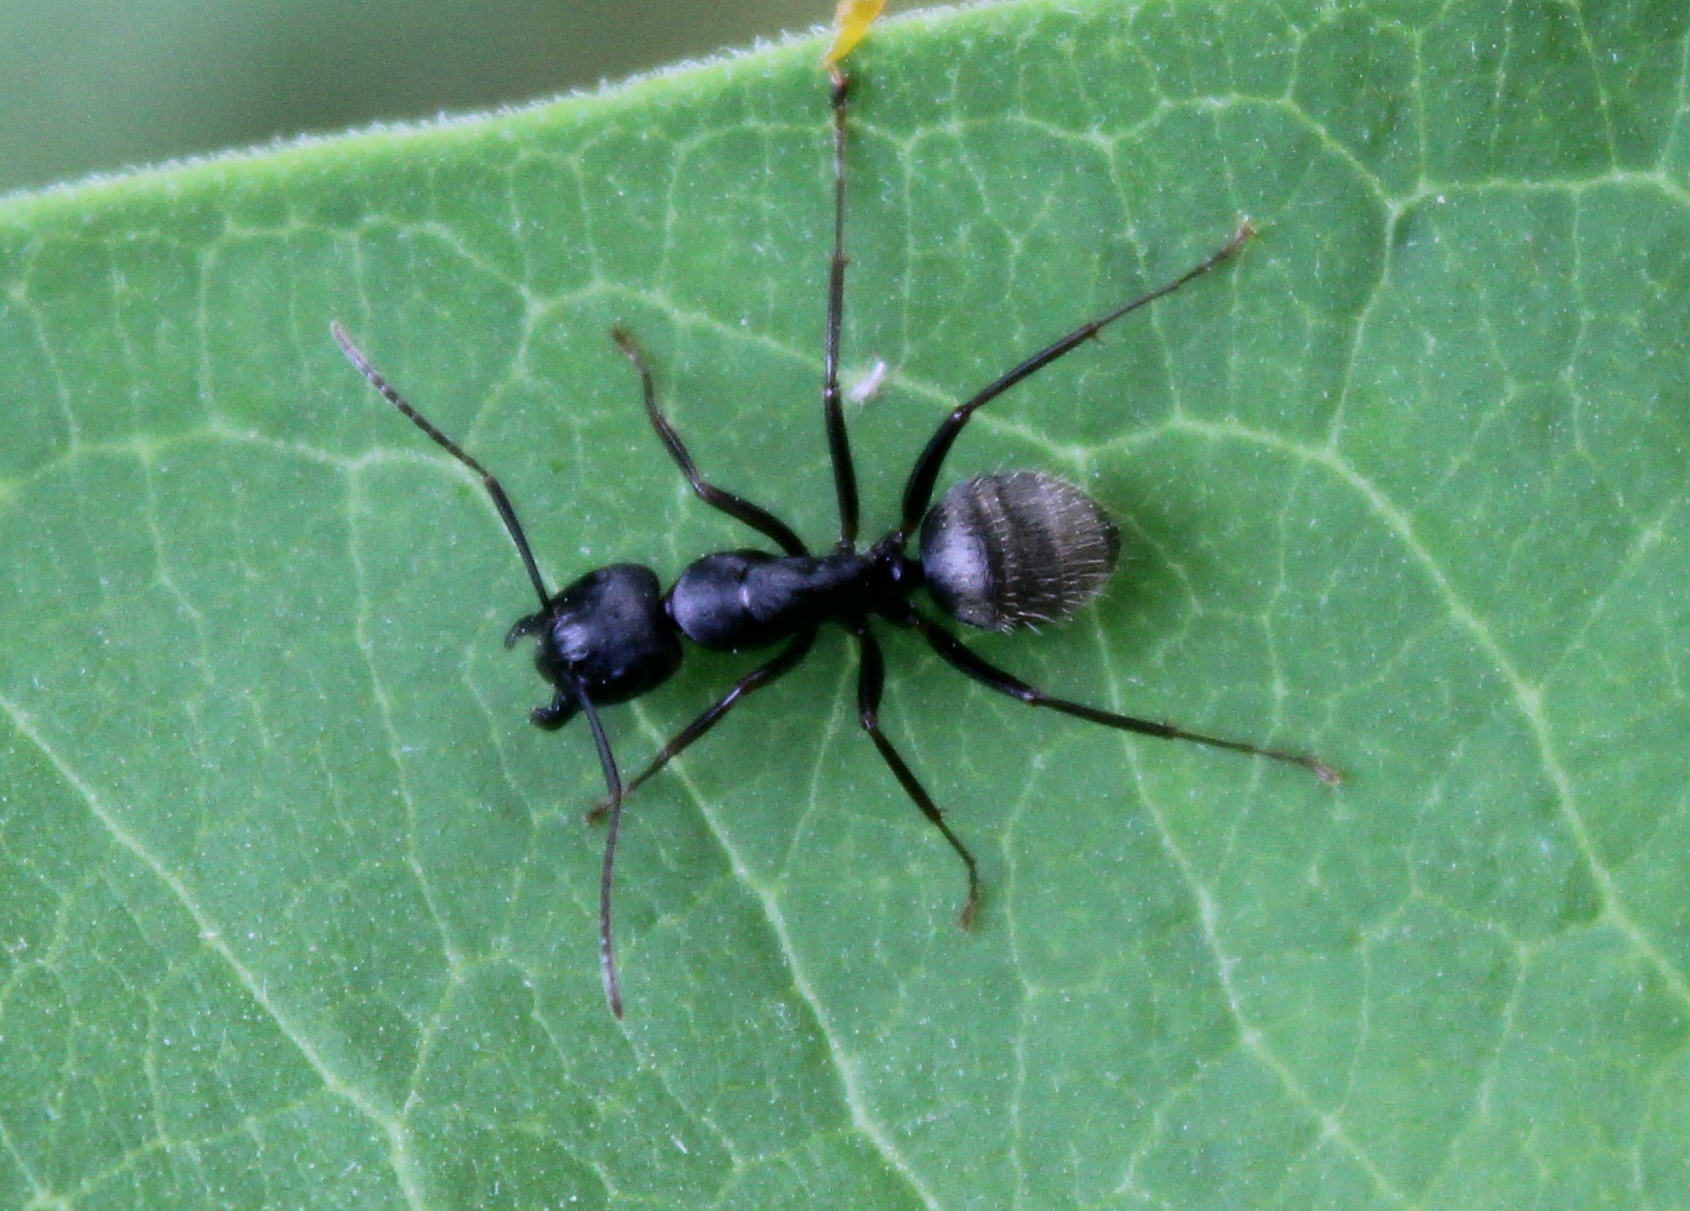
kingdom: Animalia
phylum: Arthropoda
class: Insecta
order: Hymenoptera
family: Formicidae
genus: Camponotus
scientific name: Camponotus pennsylvanicus
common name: Black carpenter ant
